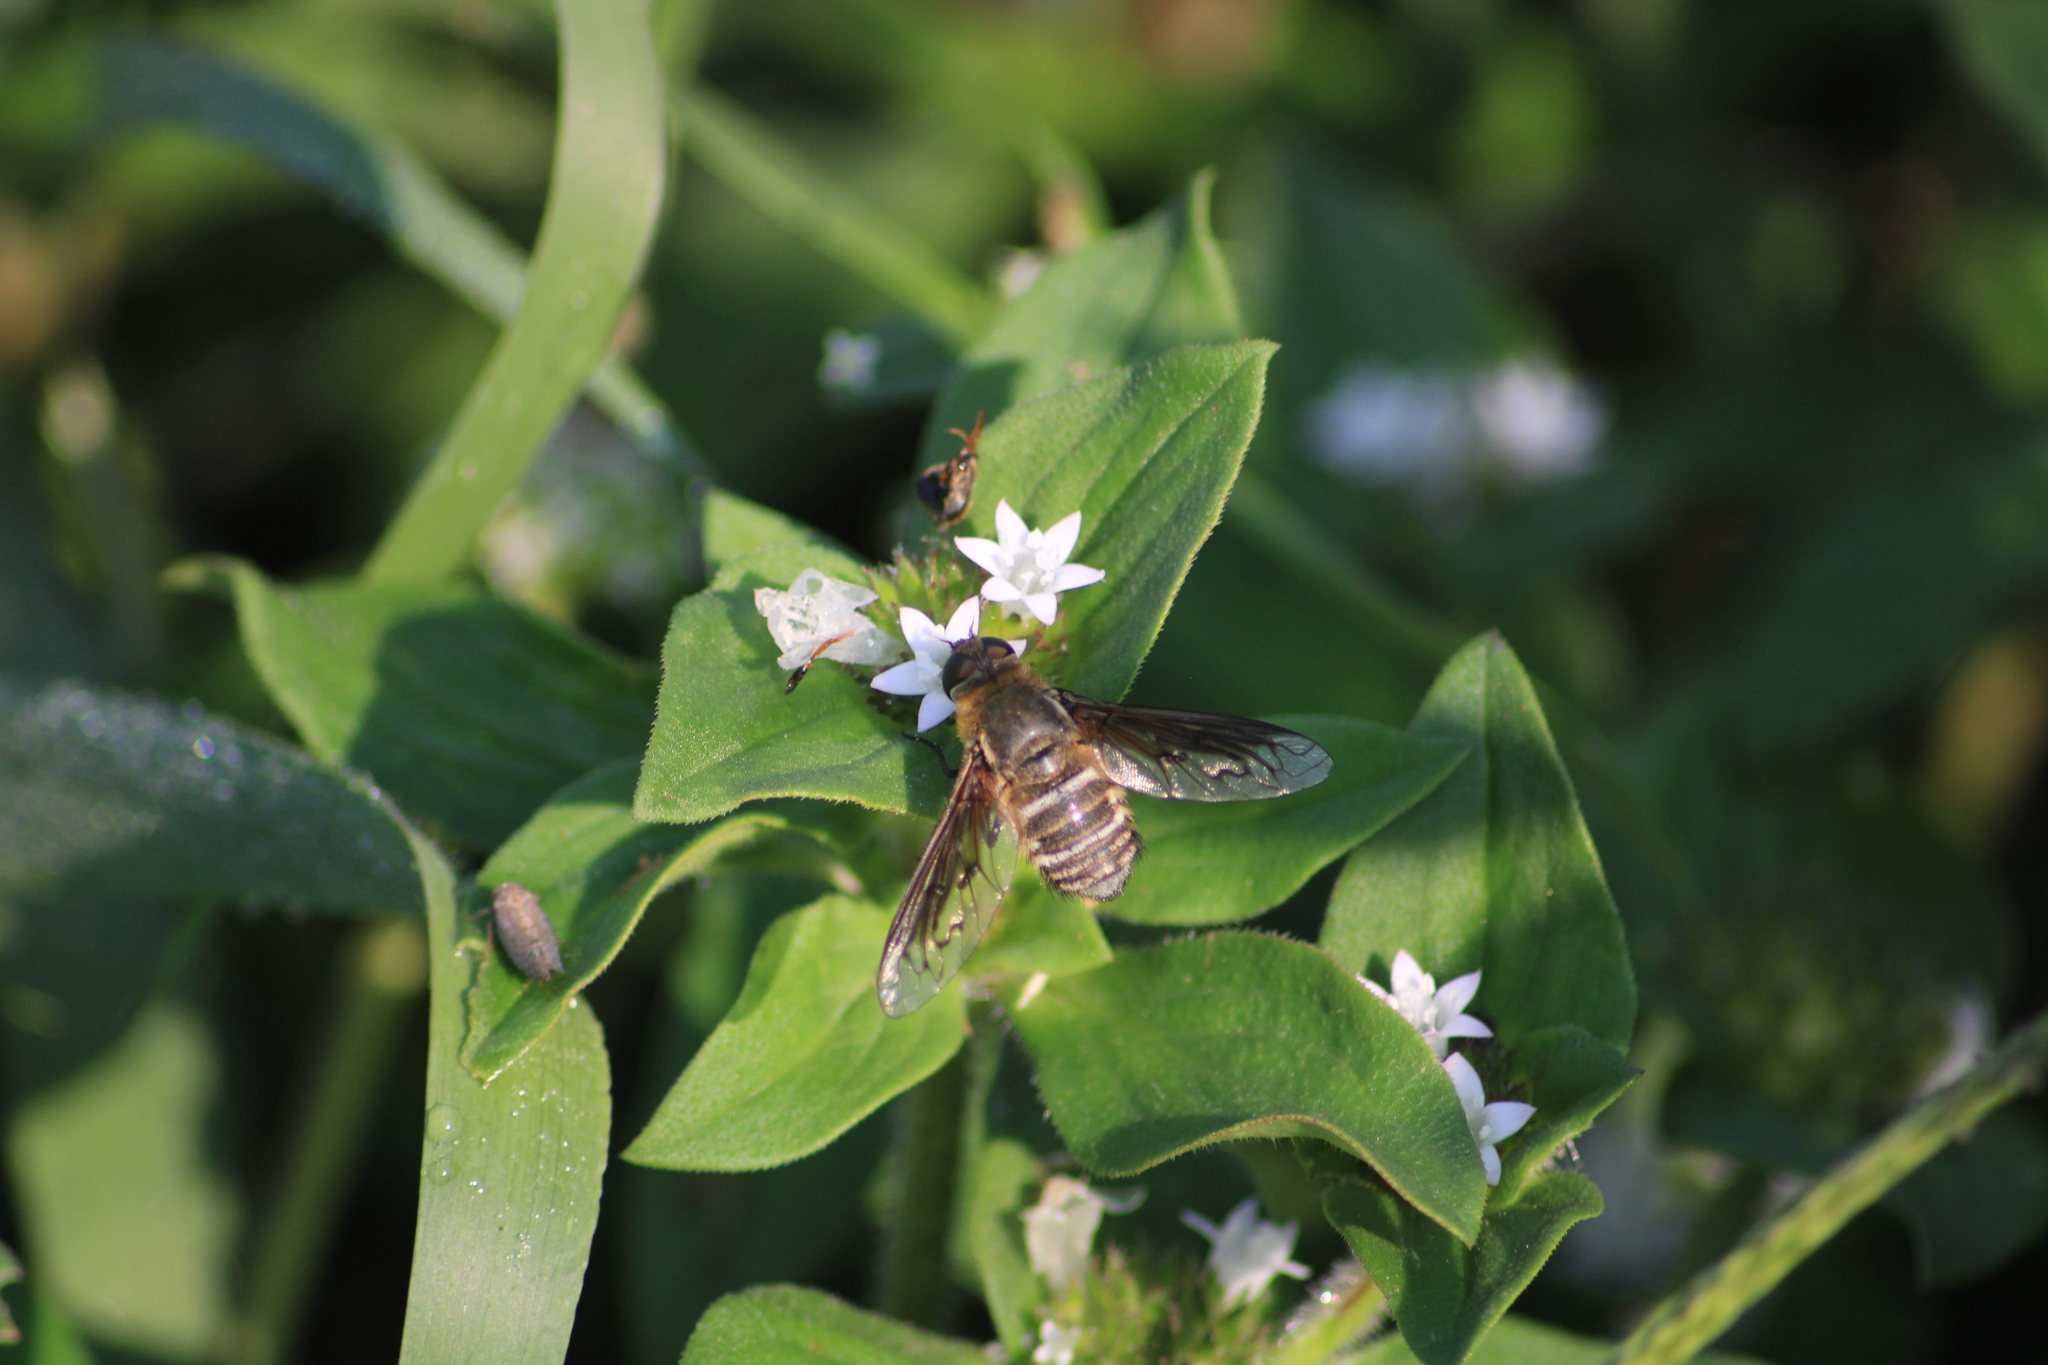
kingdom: Plantae
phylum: Tracheophyta
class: Magnoliopsida
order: Gentianales
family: Rubiaceae
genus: Richardia
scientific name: Richardia scabra
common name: Rough mexican clover
